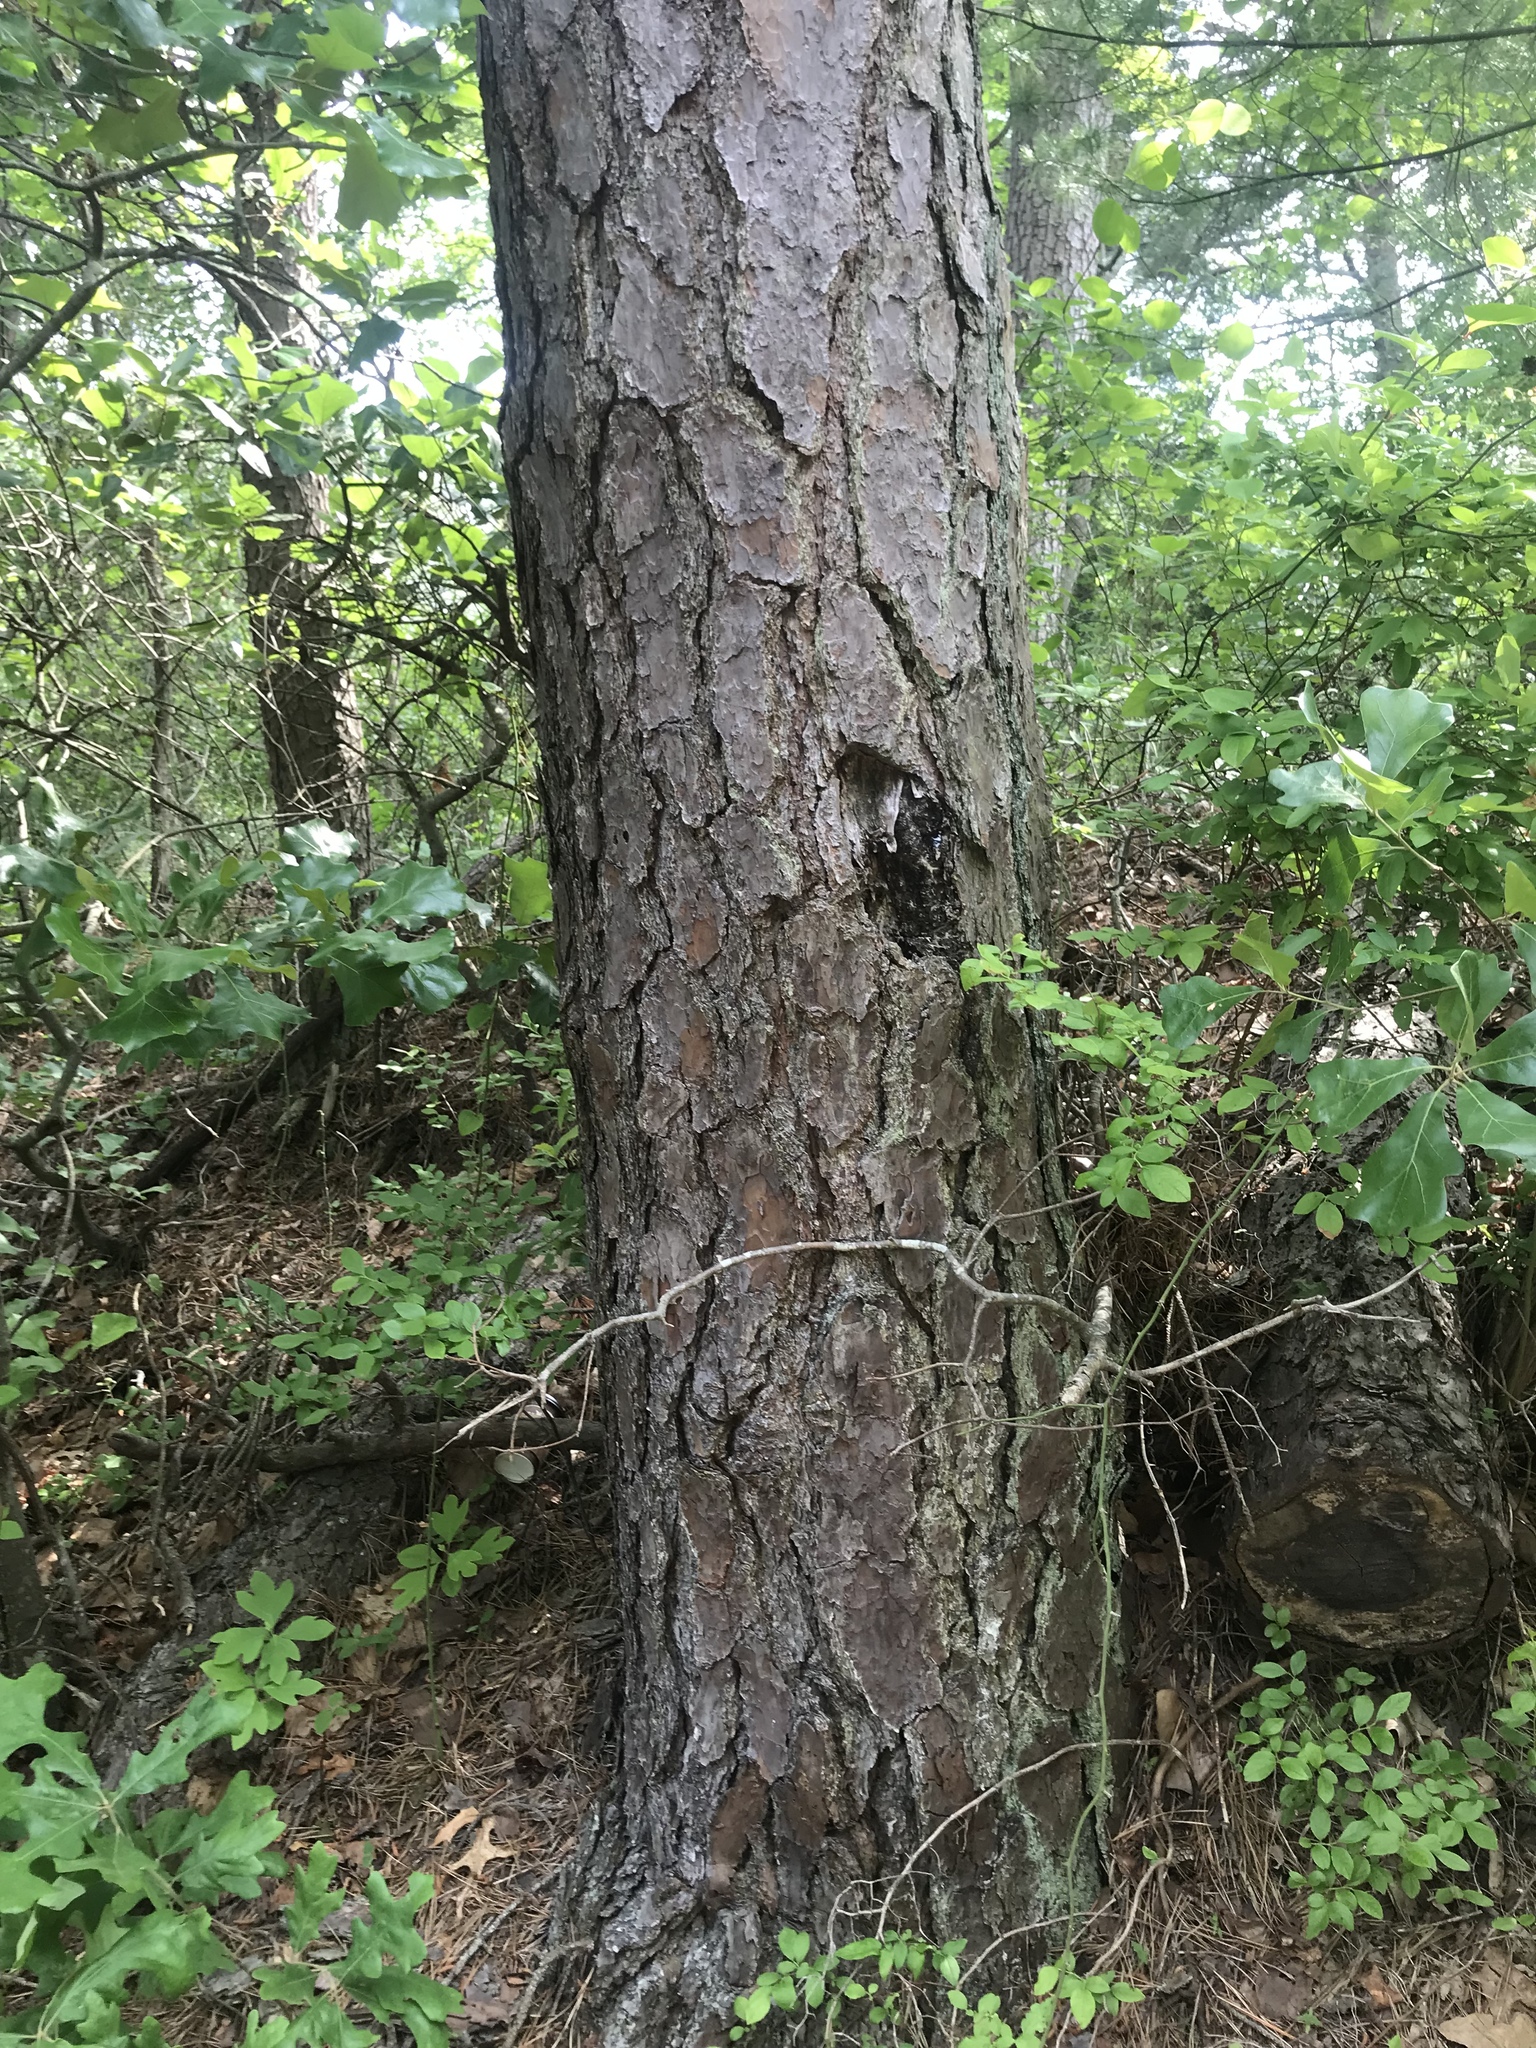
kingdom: Plantae
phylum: Tracheophyta
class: Pinopsida
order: Pinales
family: Pinaceae
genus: Pinus
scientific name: Pinus rigida
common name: Pitch pine
